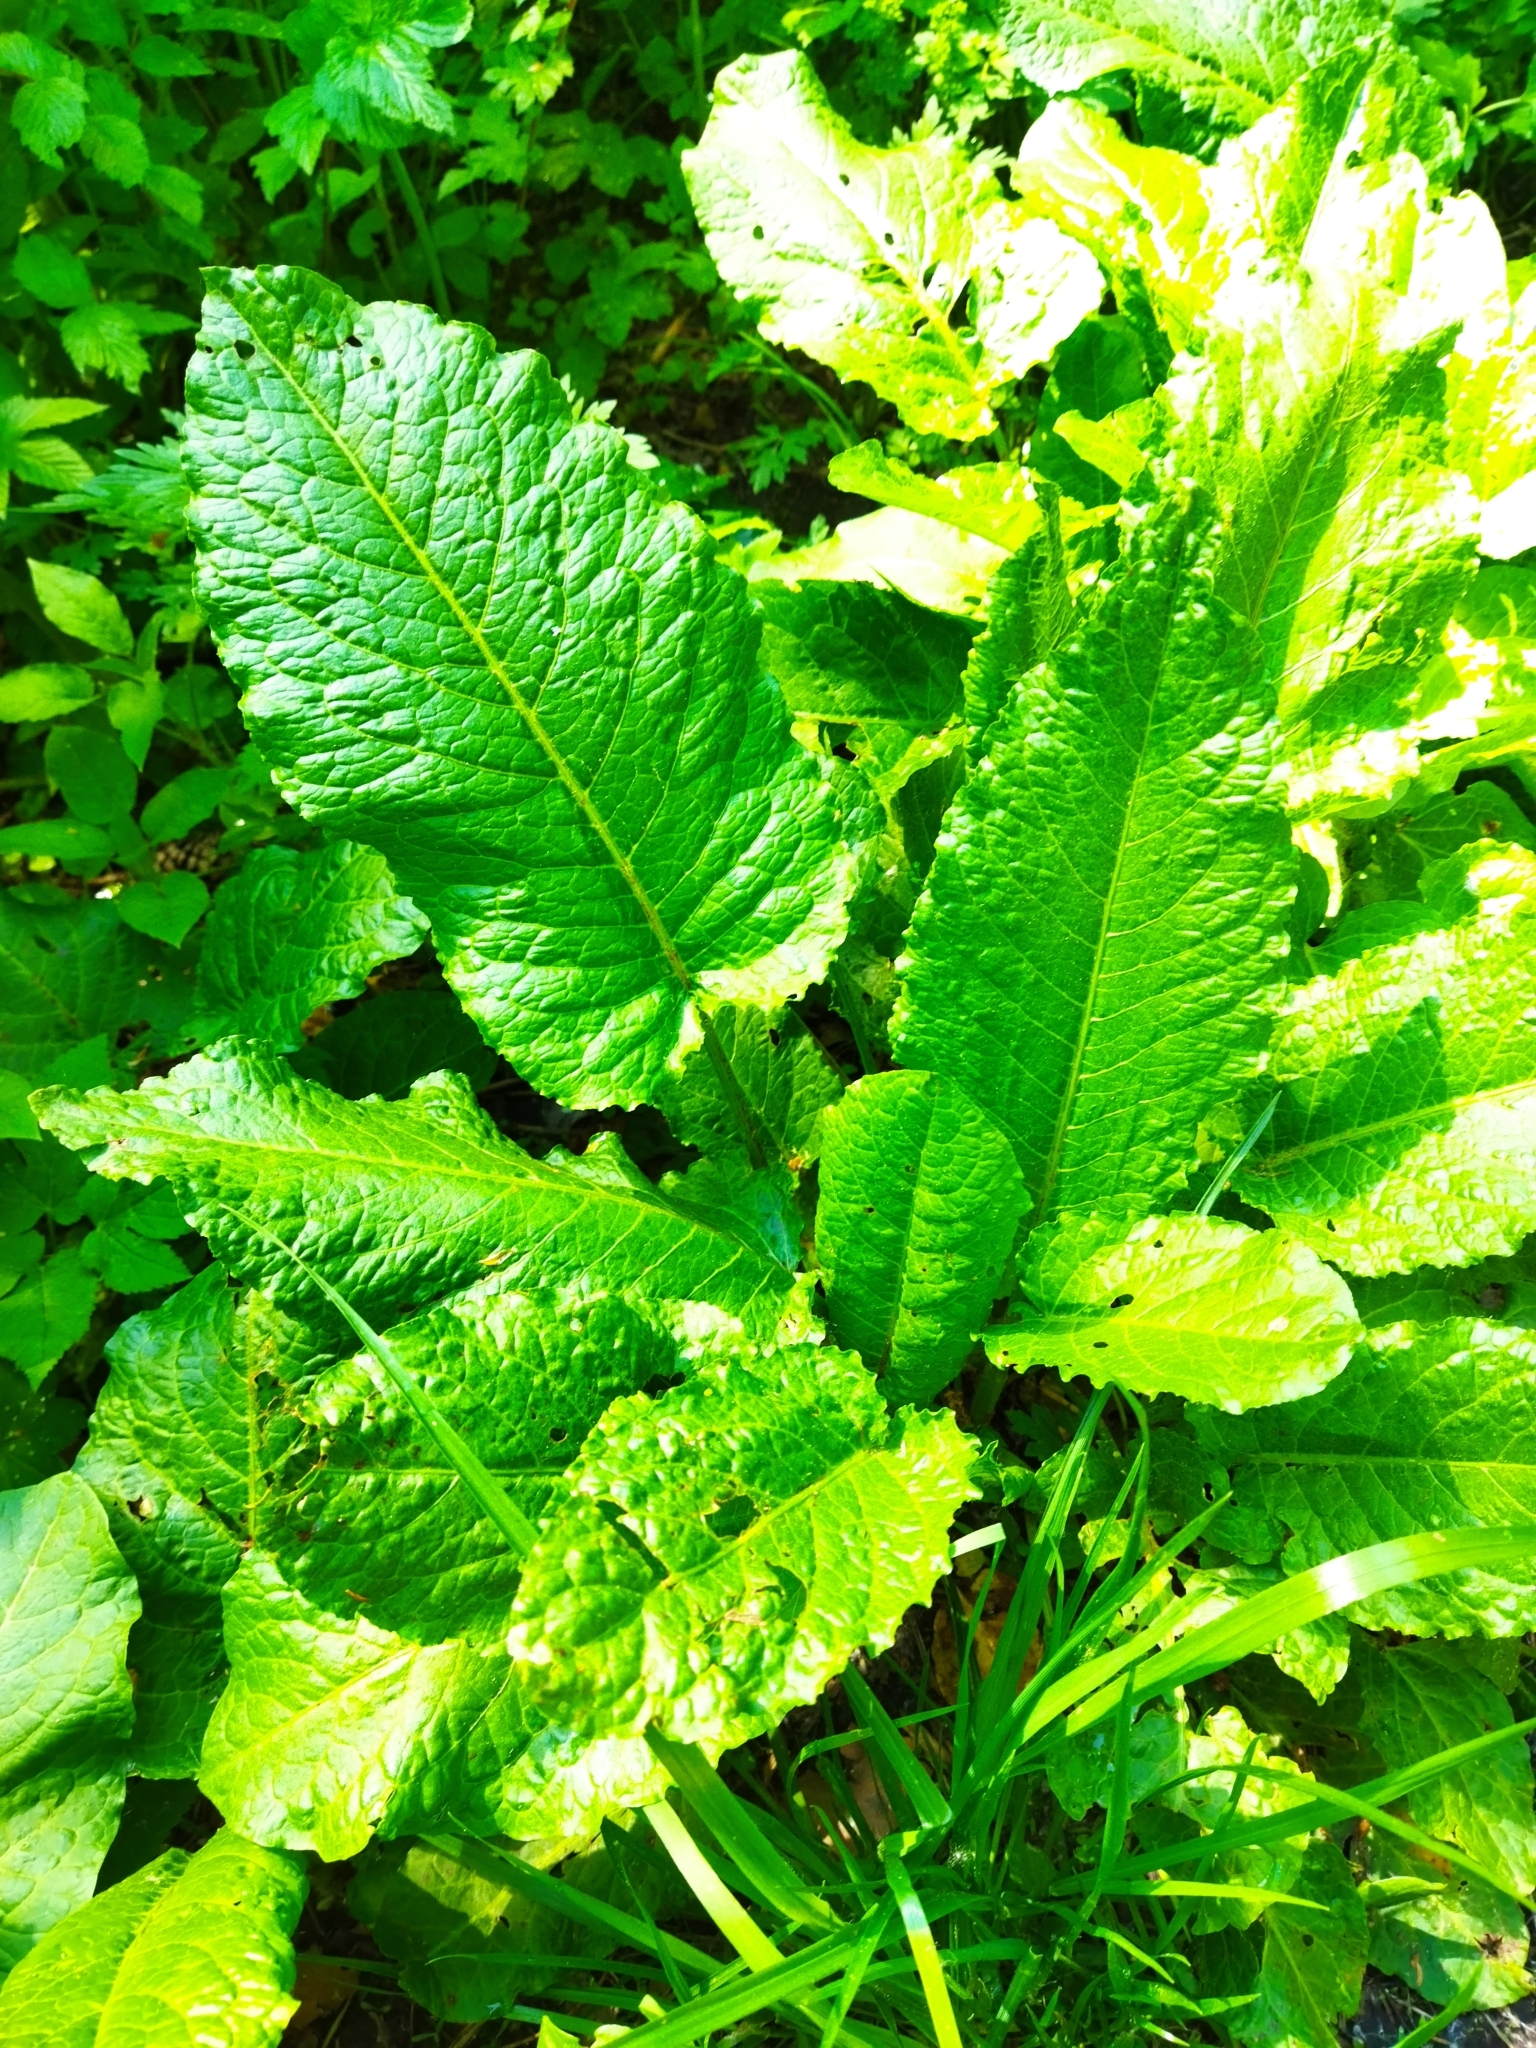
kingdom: Plantae
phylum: Tracheophyta
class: Magnoliopsida
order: Caryophyllales
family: Polygonaceae
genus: Rumex
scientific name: Rumex obtusifolius
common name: Bitter dock
